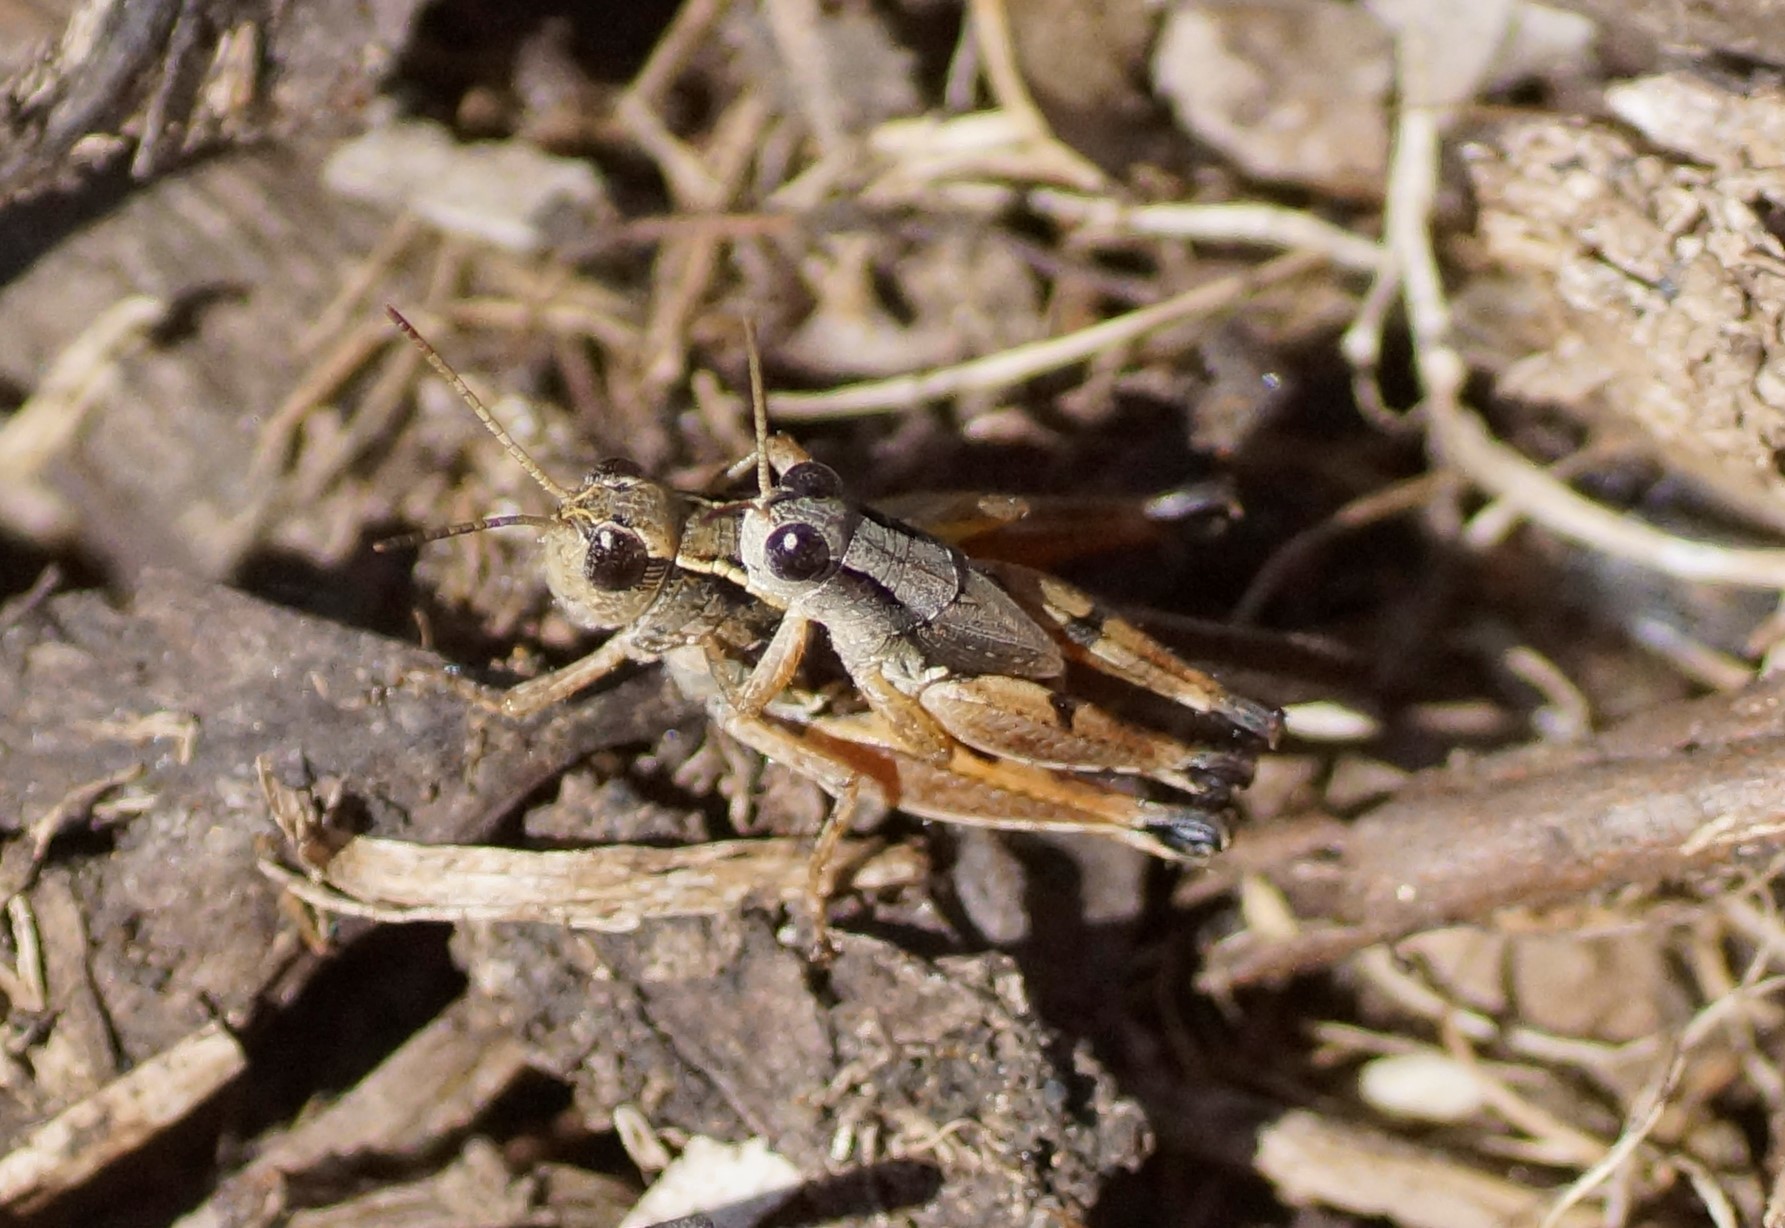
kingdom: Animalia
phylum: Arthropoda
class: Insecta
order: Orthoptera
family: Acrididae
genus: Phaulacridium
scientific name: Phaulacridium vittatum
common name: Wingless grasshopper
